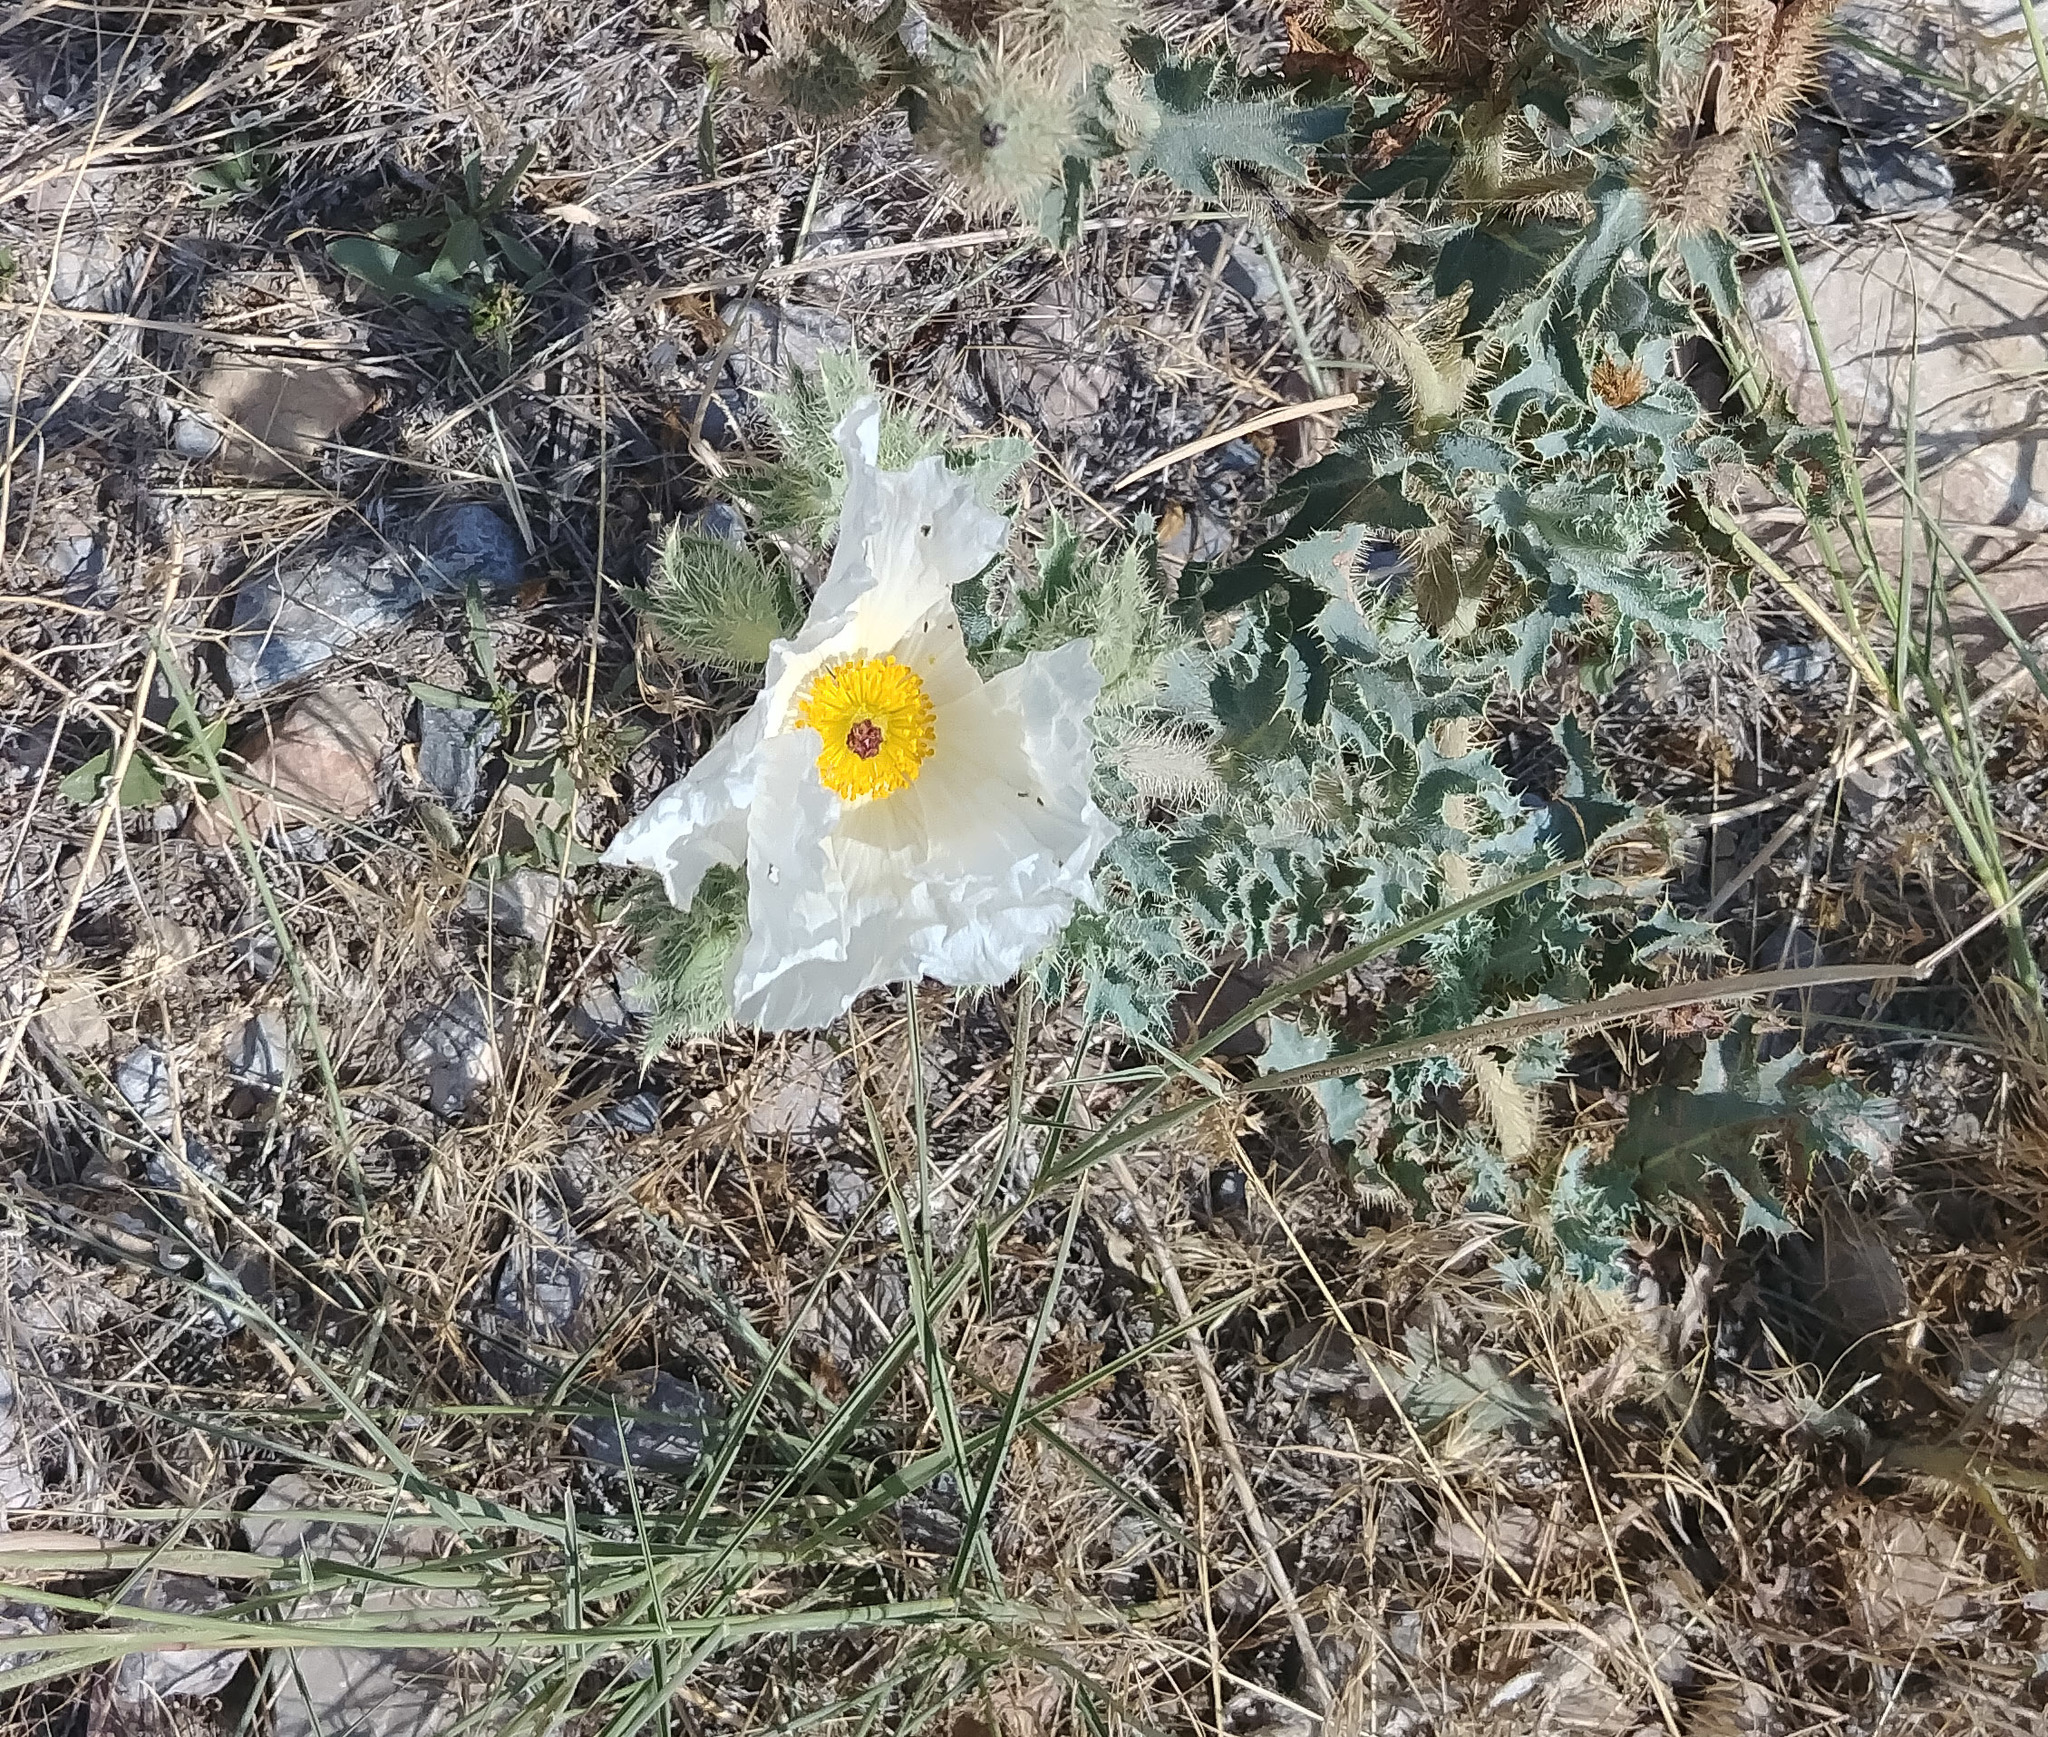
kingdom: Plantae
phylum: Tracheophyta
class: Magnoliopsida
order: Ranunculales
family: Papaveraceae
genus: Argemone
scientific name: Argemone munita
